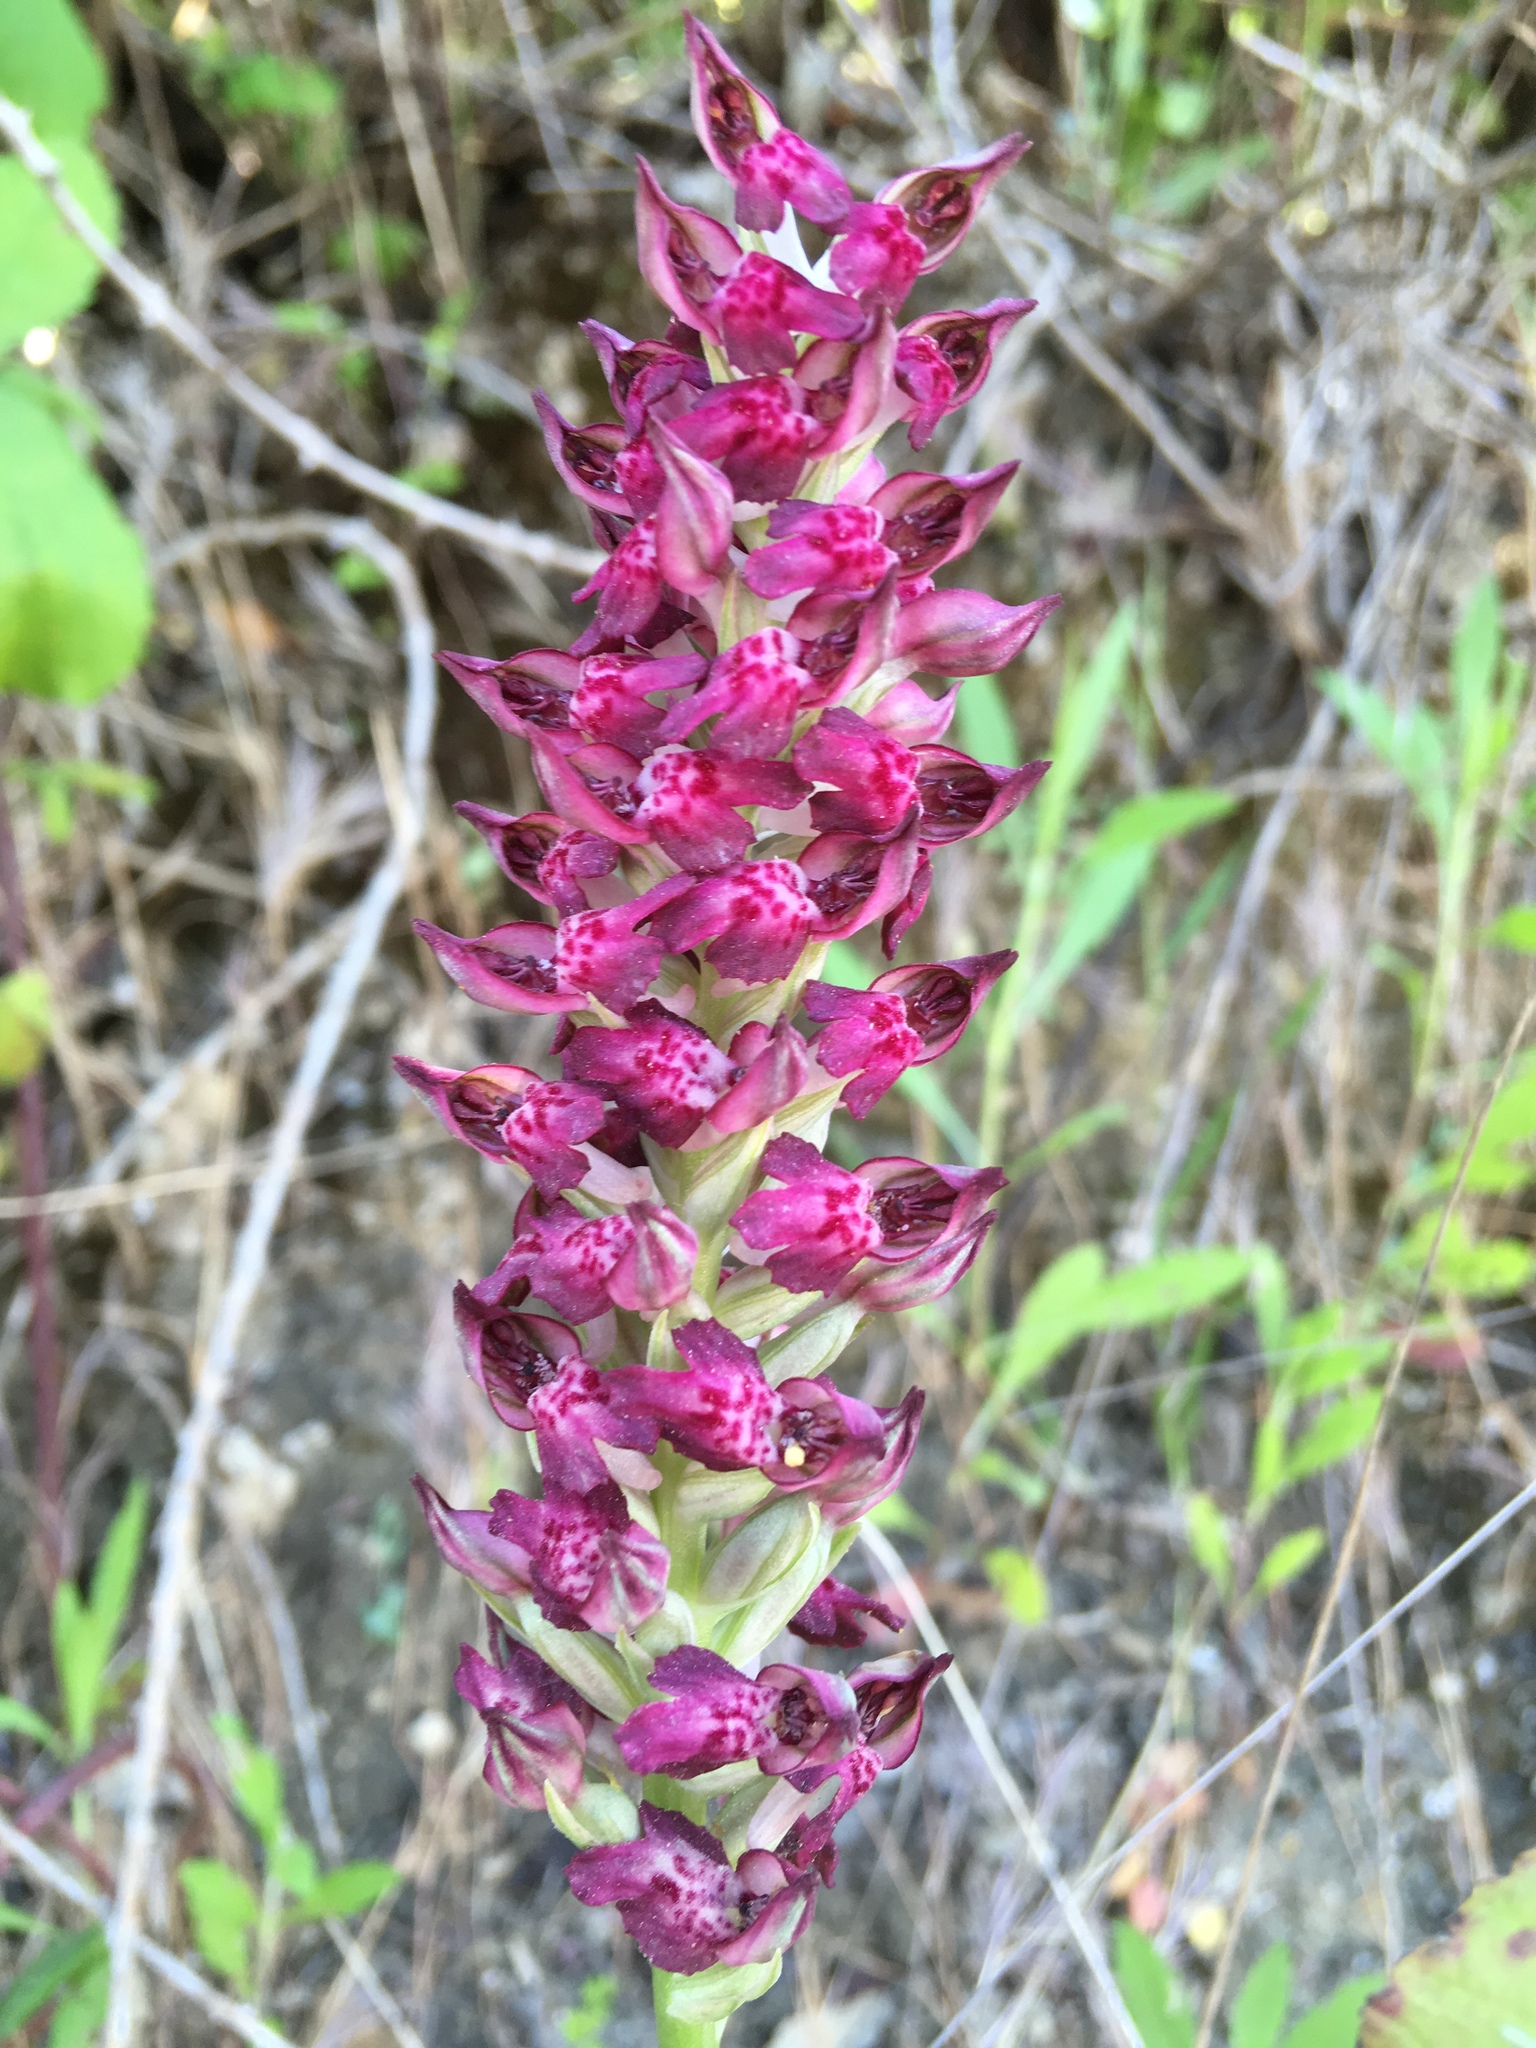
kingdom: Plantae
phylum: Tracheophyta
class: Liliopsida
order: Asparagales
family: Orchidaceae
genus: Anacamptis
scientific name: Anacamptis coriophora
